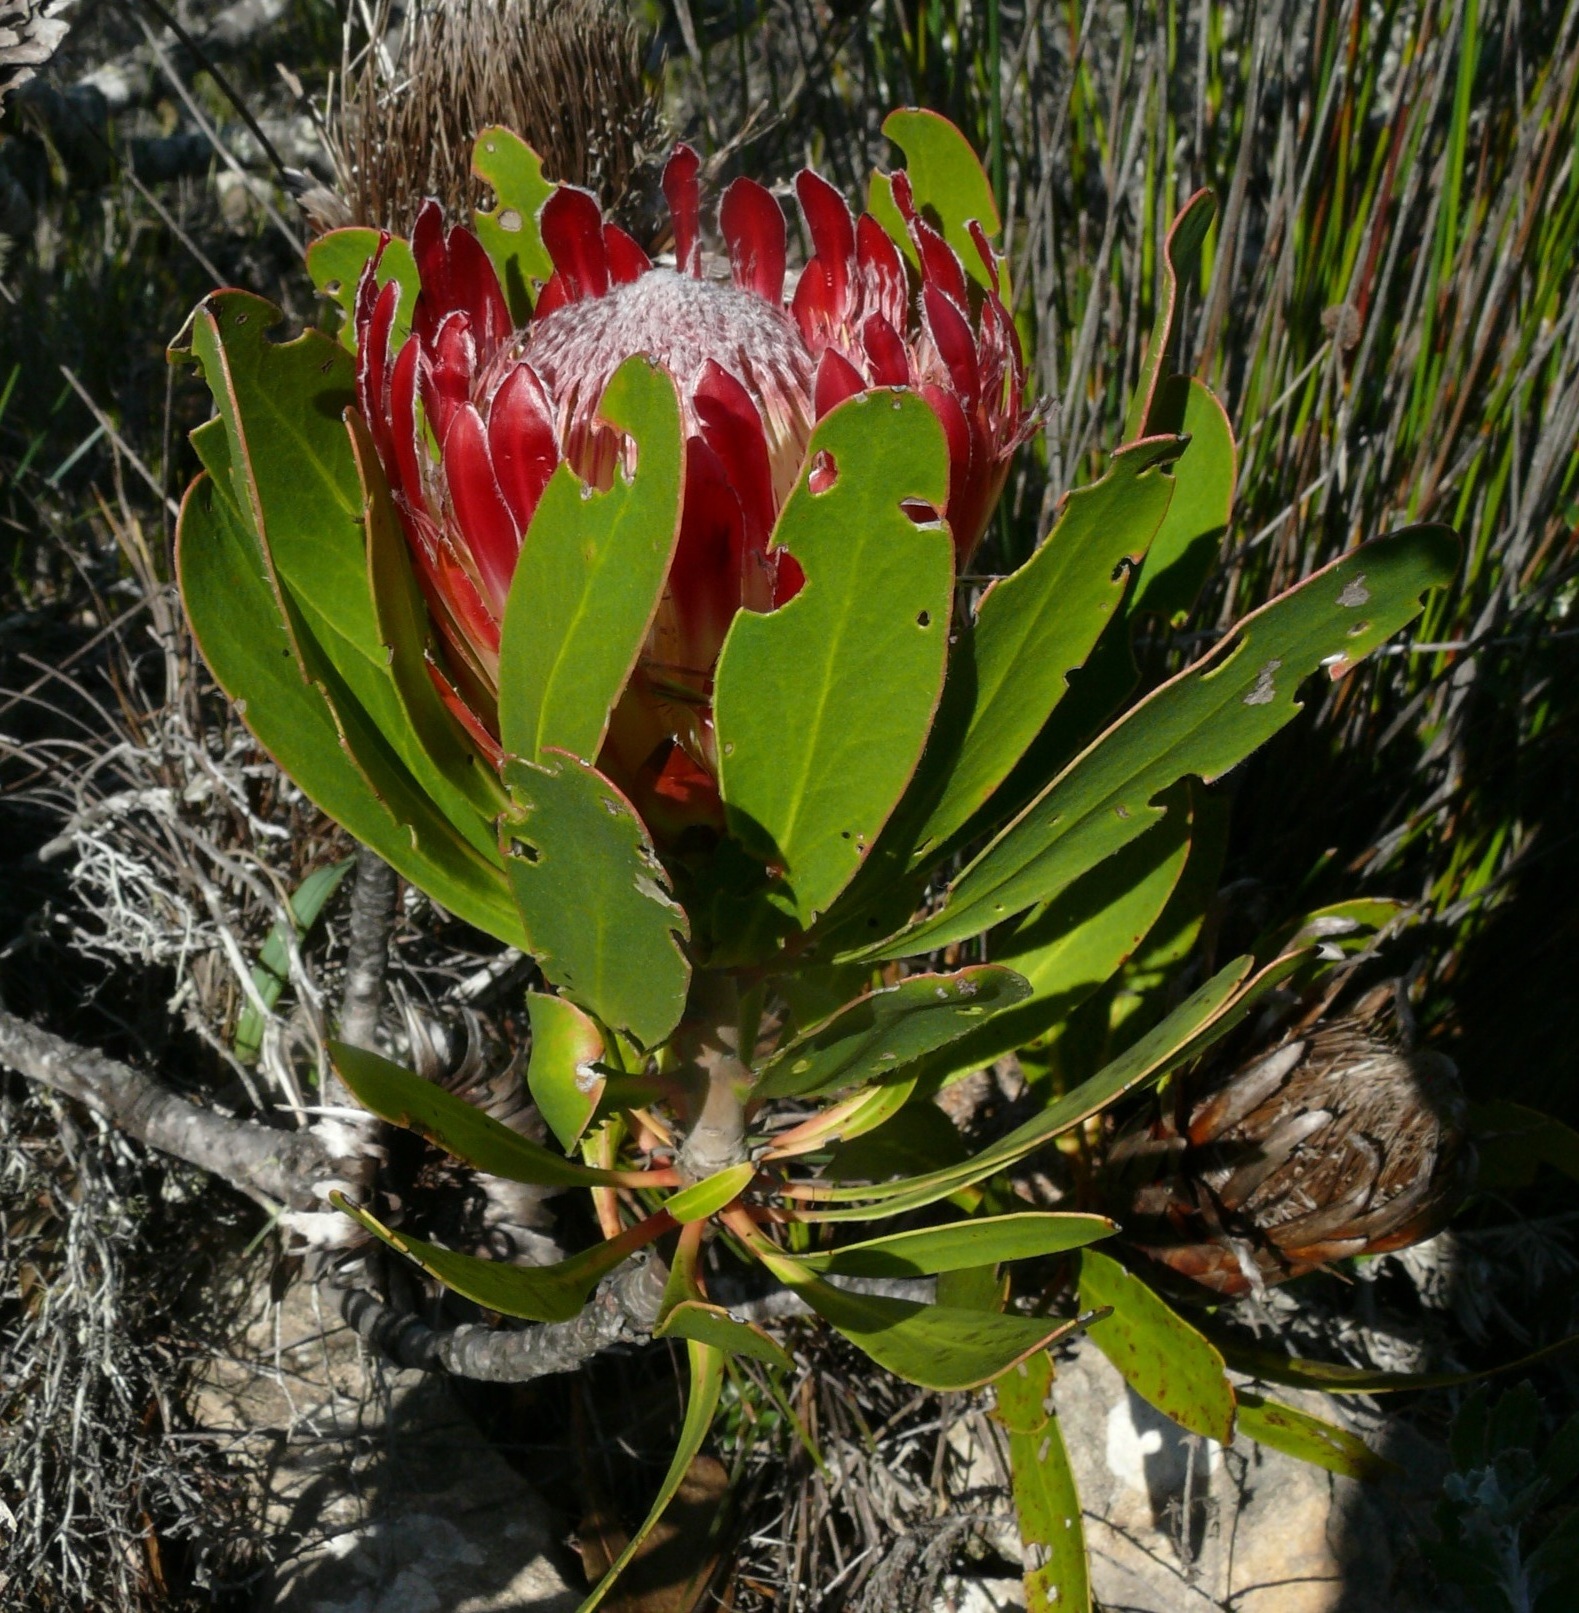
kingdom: Plantae
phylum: Tracheophyta
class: Magnoliopsida
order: Proteales
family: Proteaceae
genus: Protea
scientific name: Protea obtusifolia
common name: Bredasdorp sugarbush
